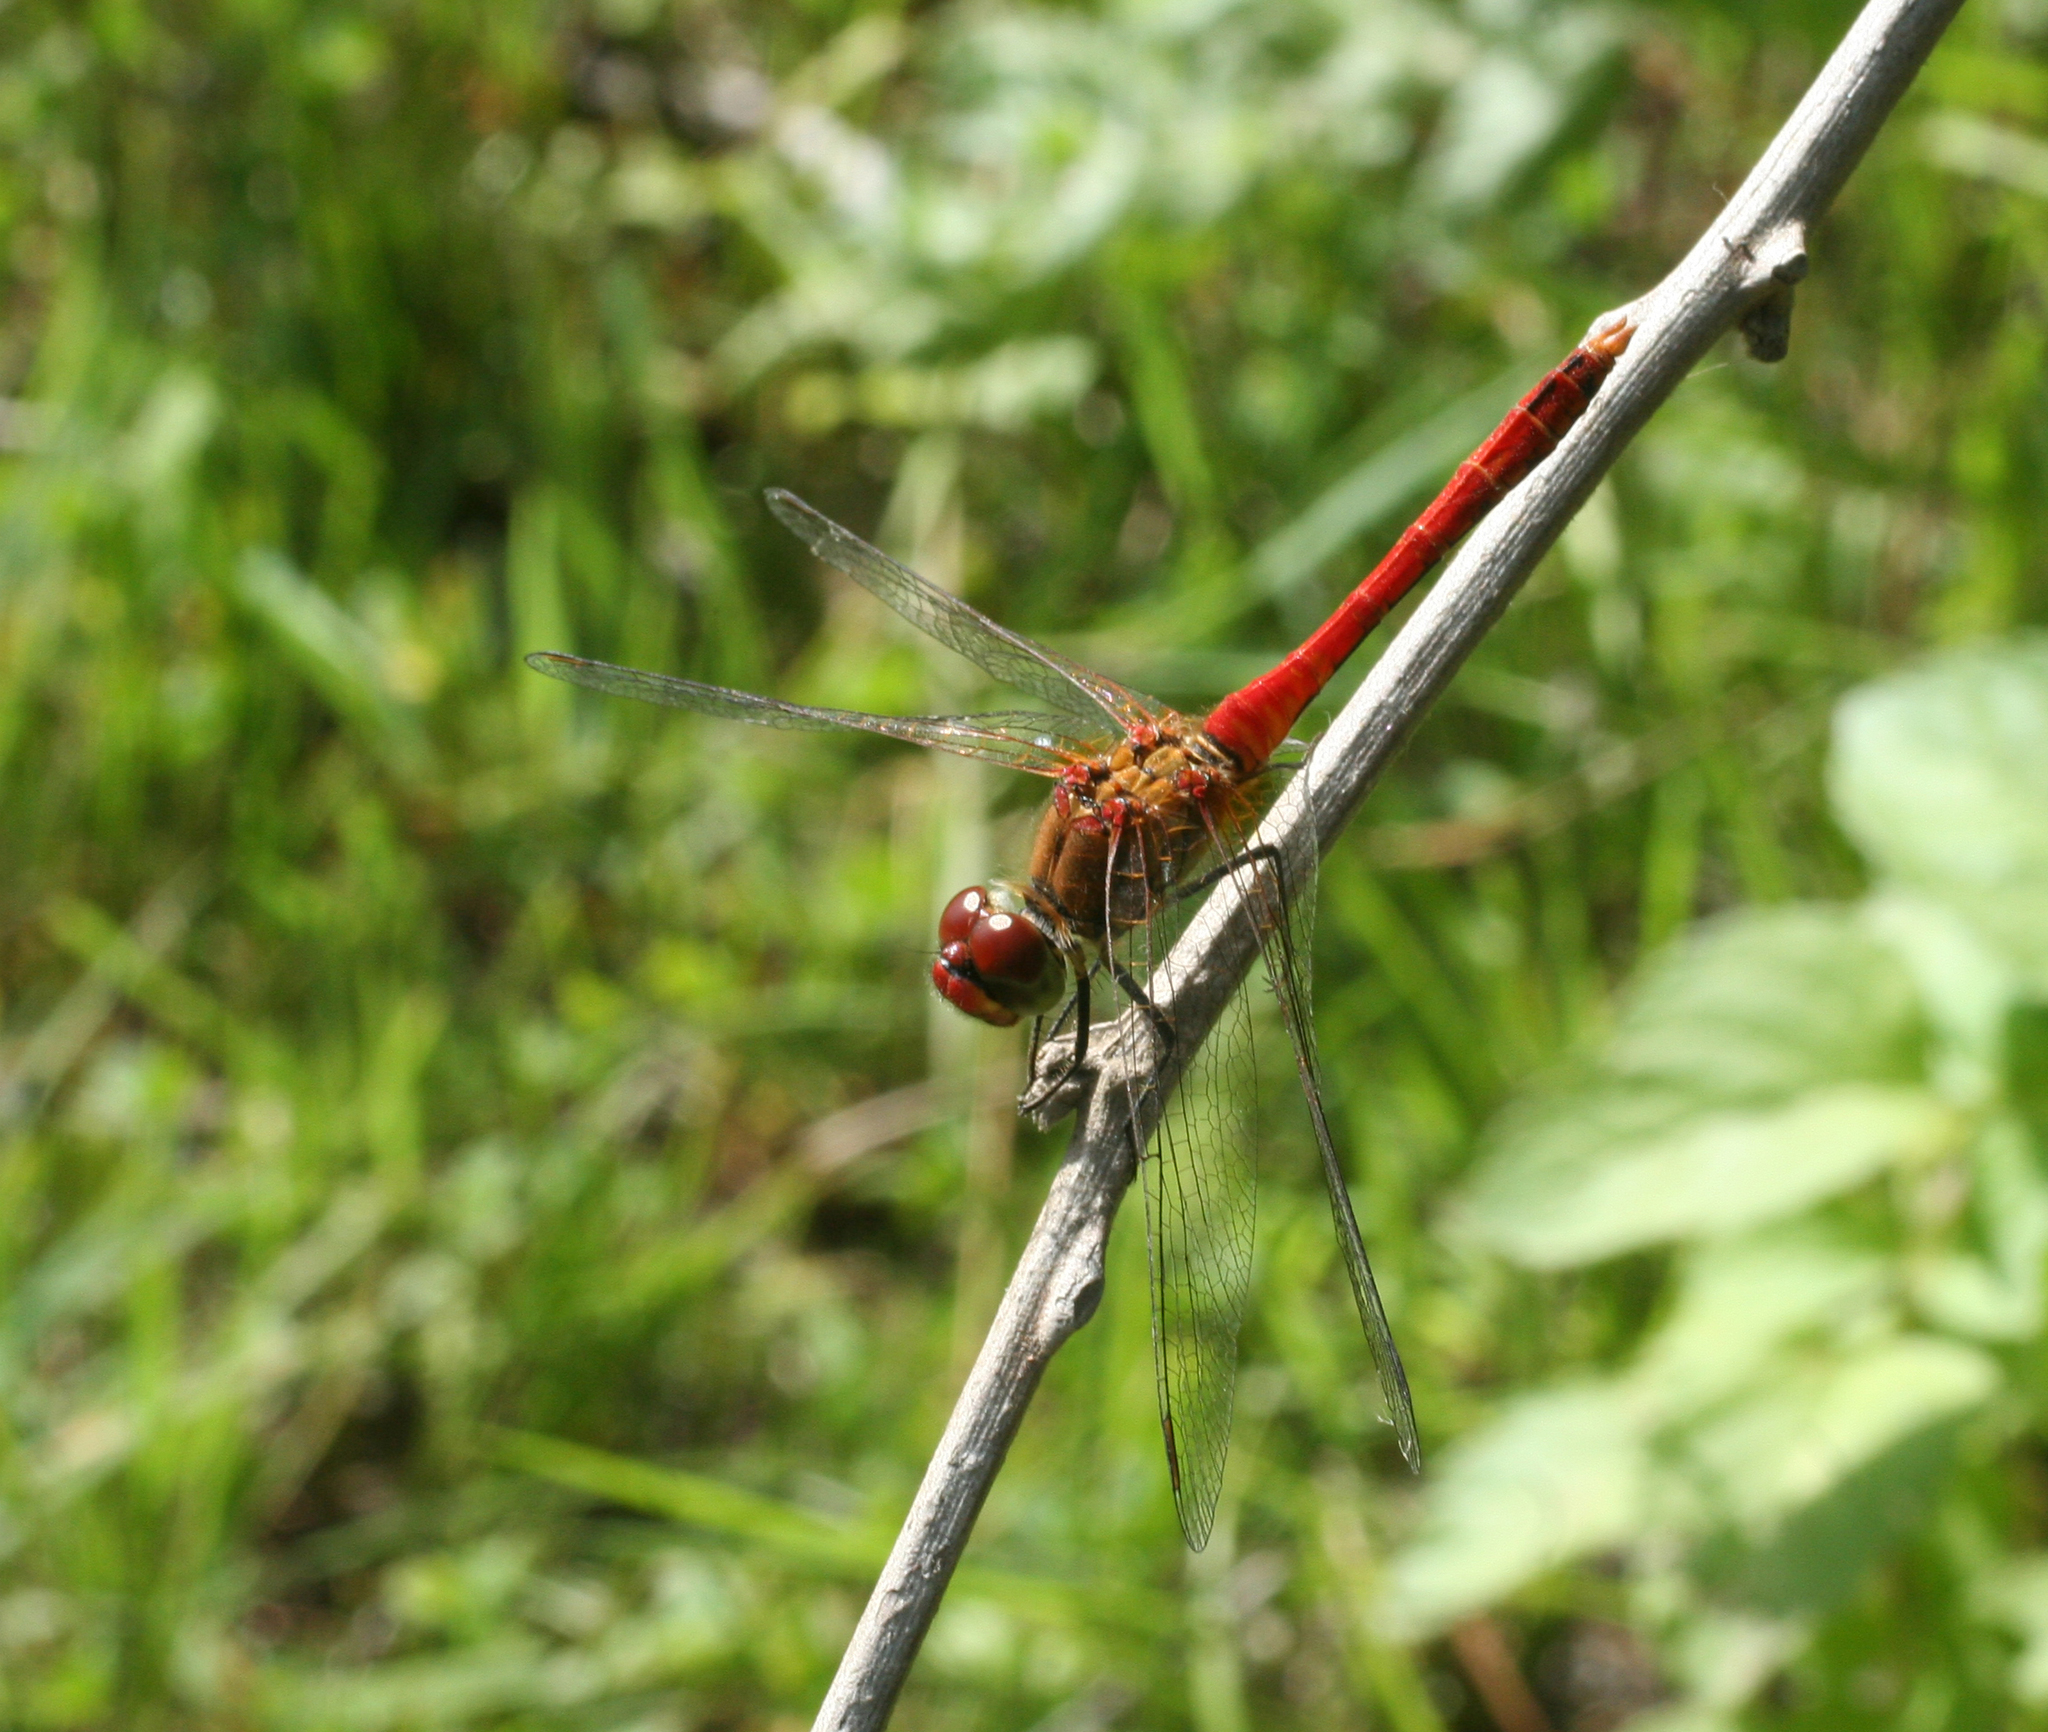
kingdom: Animalia
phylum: Arthropoda
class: Insecta
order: Odonata
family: Libellulidae
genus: Sympetrum
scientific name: Sympetrum sanguineum
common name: Ruddy darter
